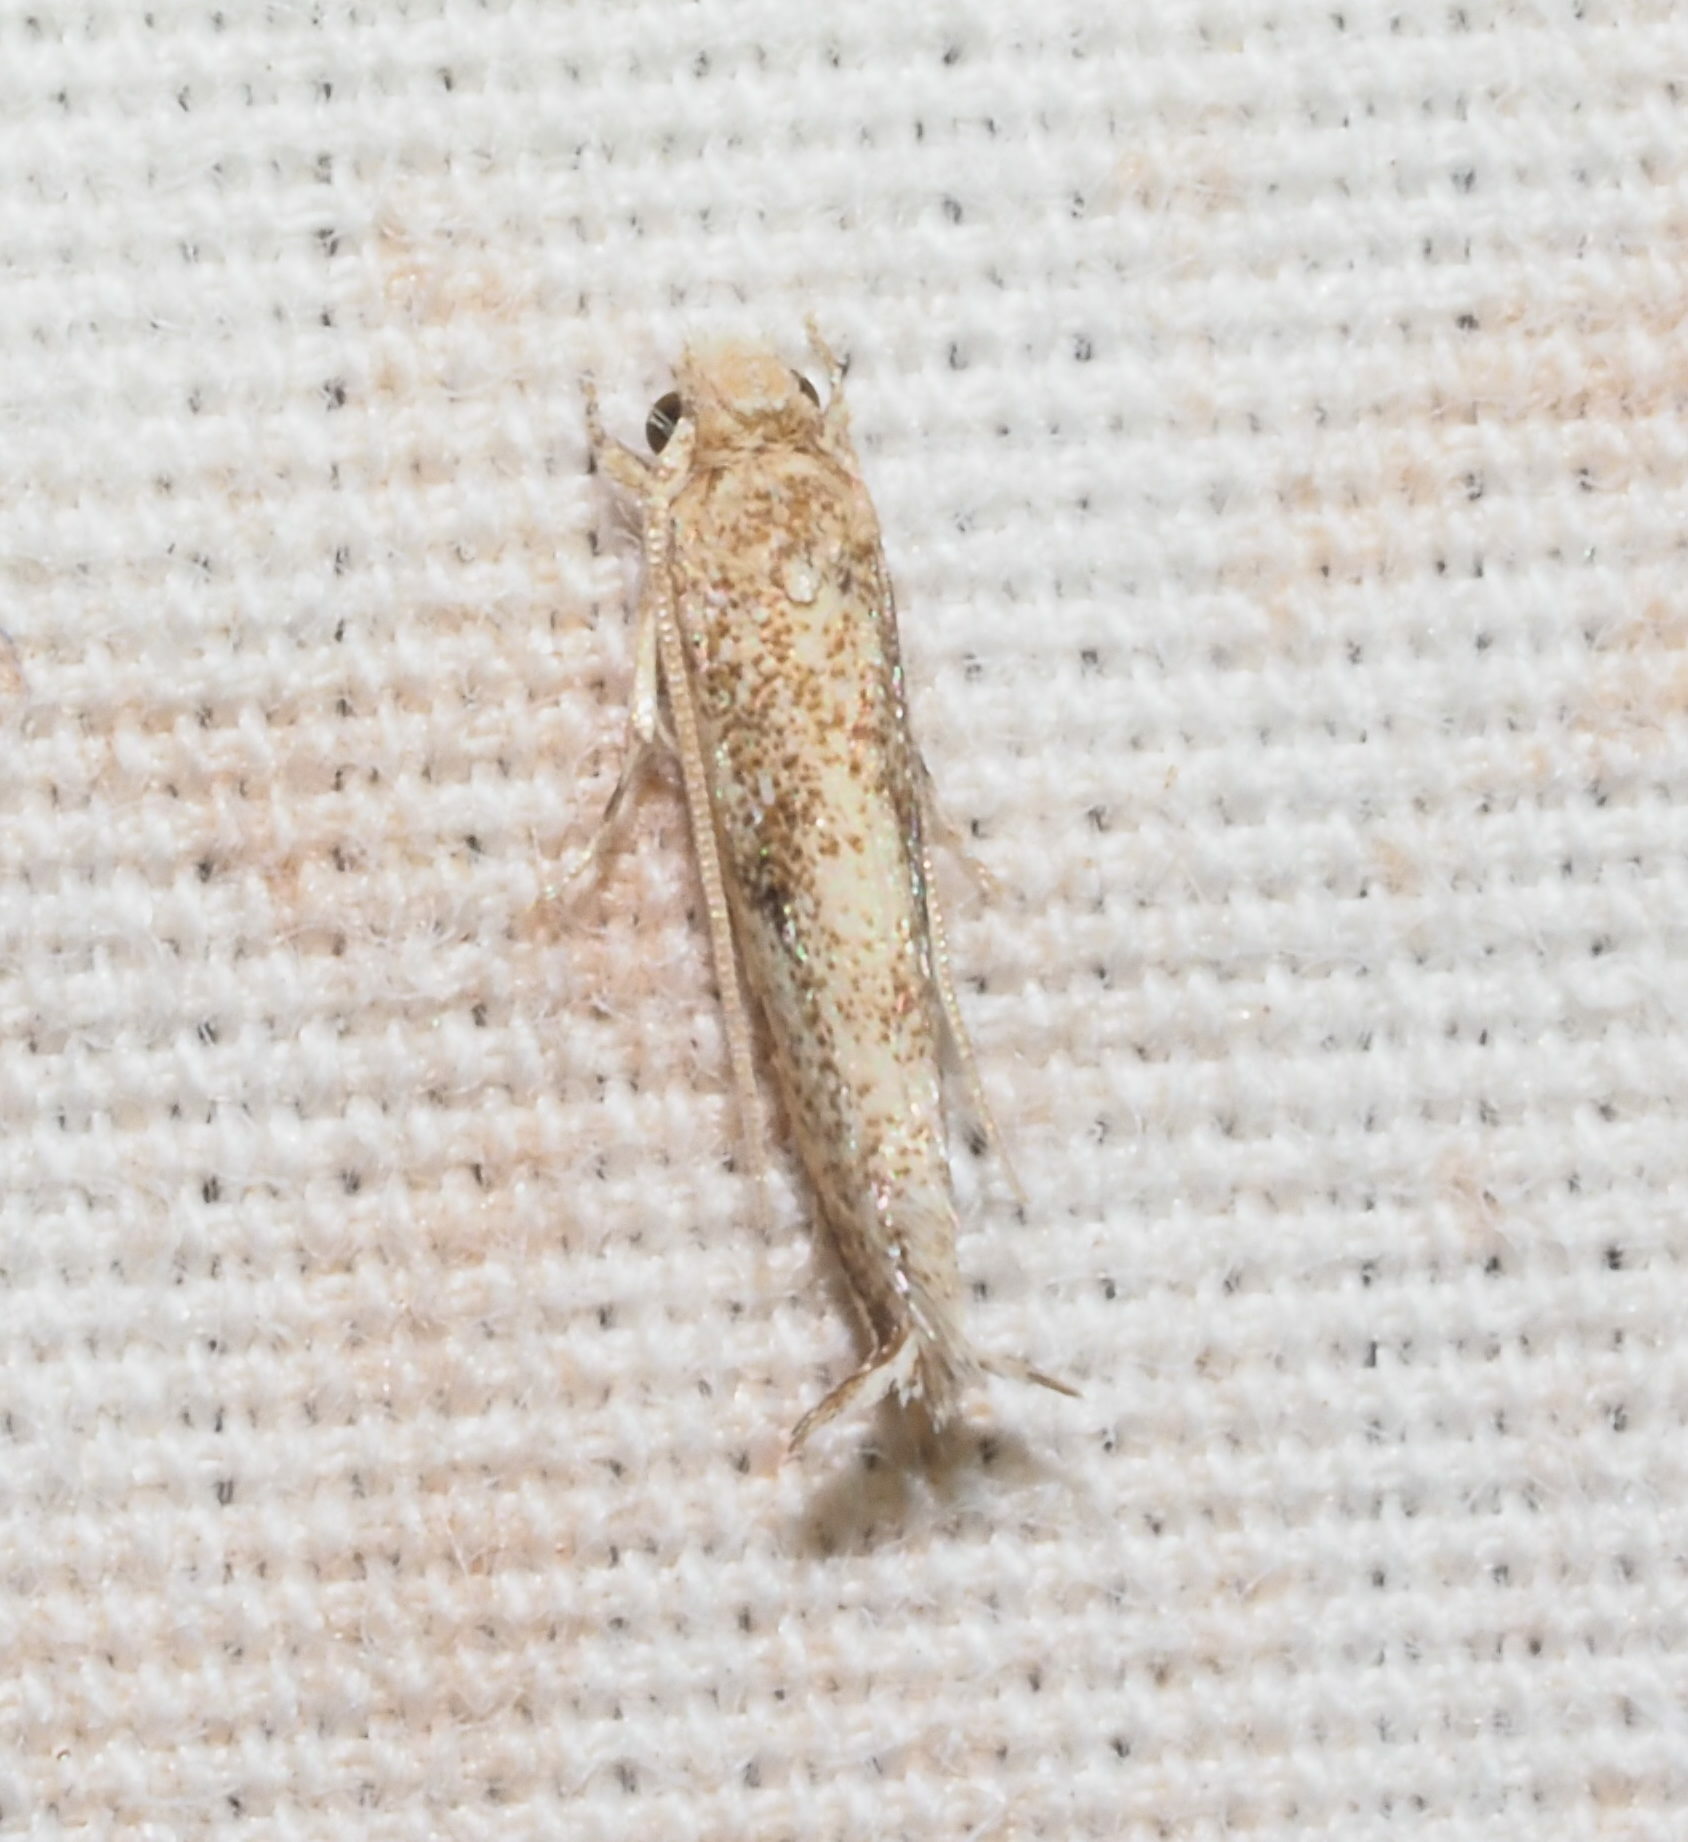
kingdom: Animalia
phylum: Arthropoda
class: Insecta
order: Lepidoptera
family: Tineidae
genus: Erechthias
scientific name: Erechthias minuscula
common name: Fungus moth
